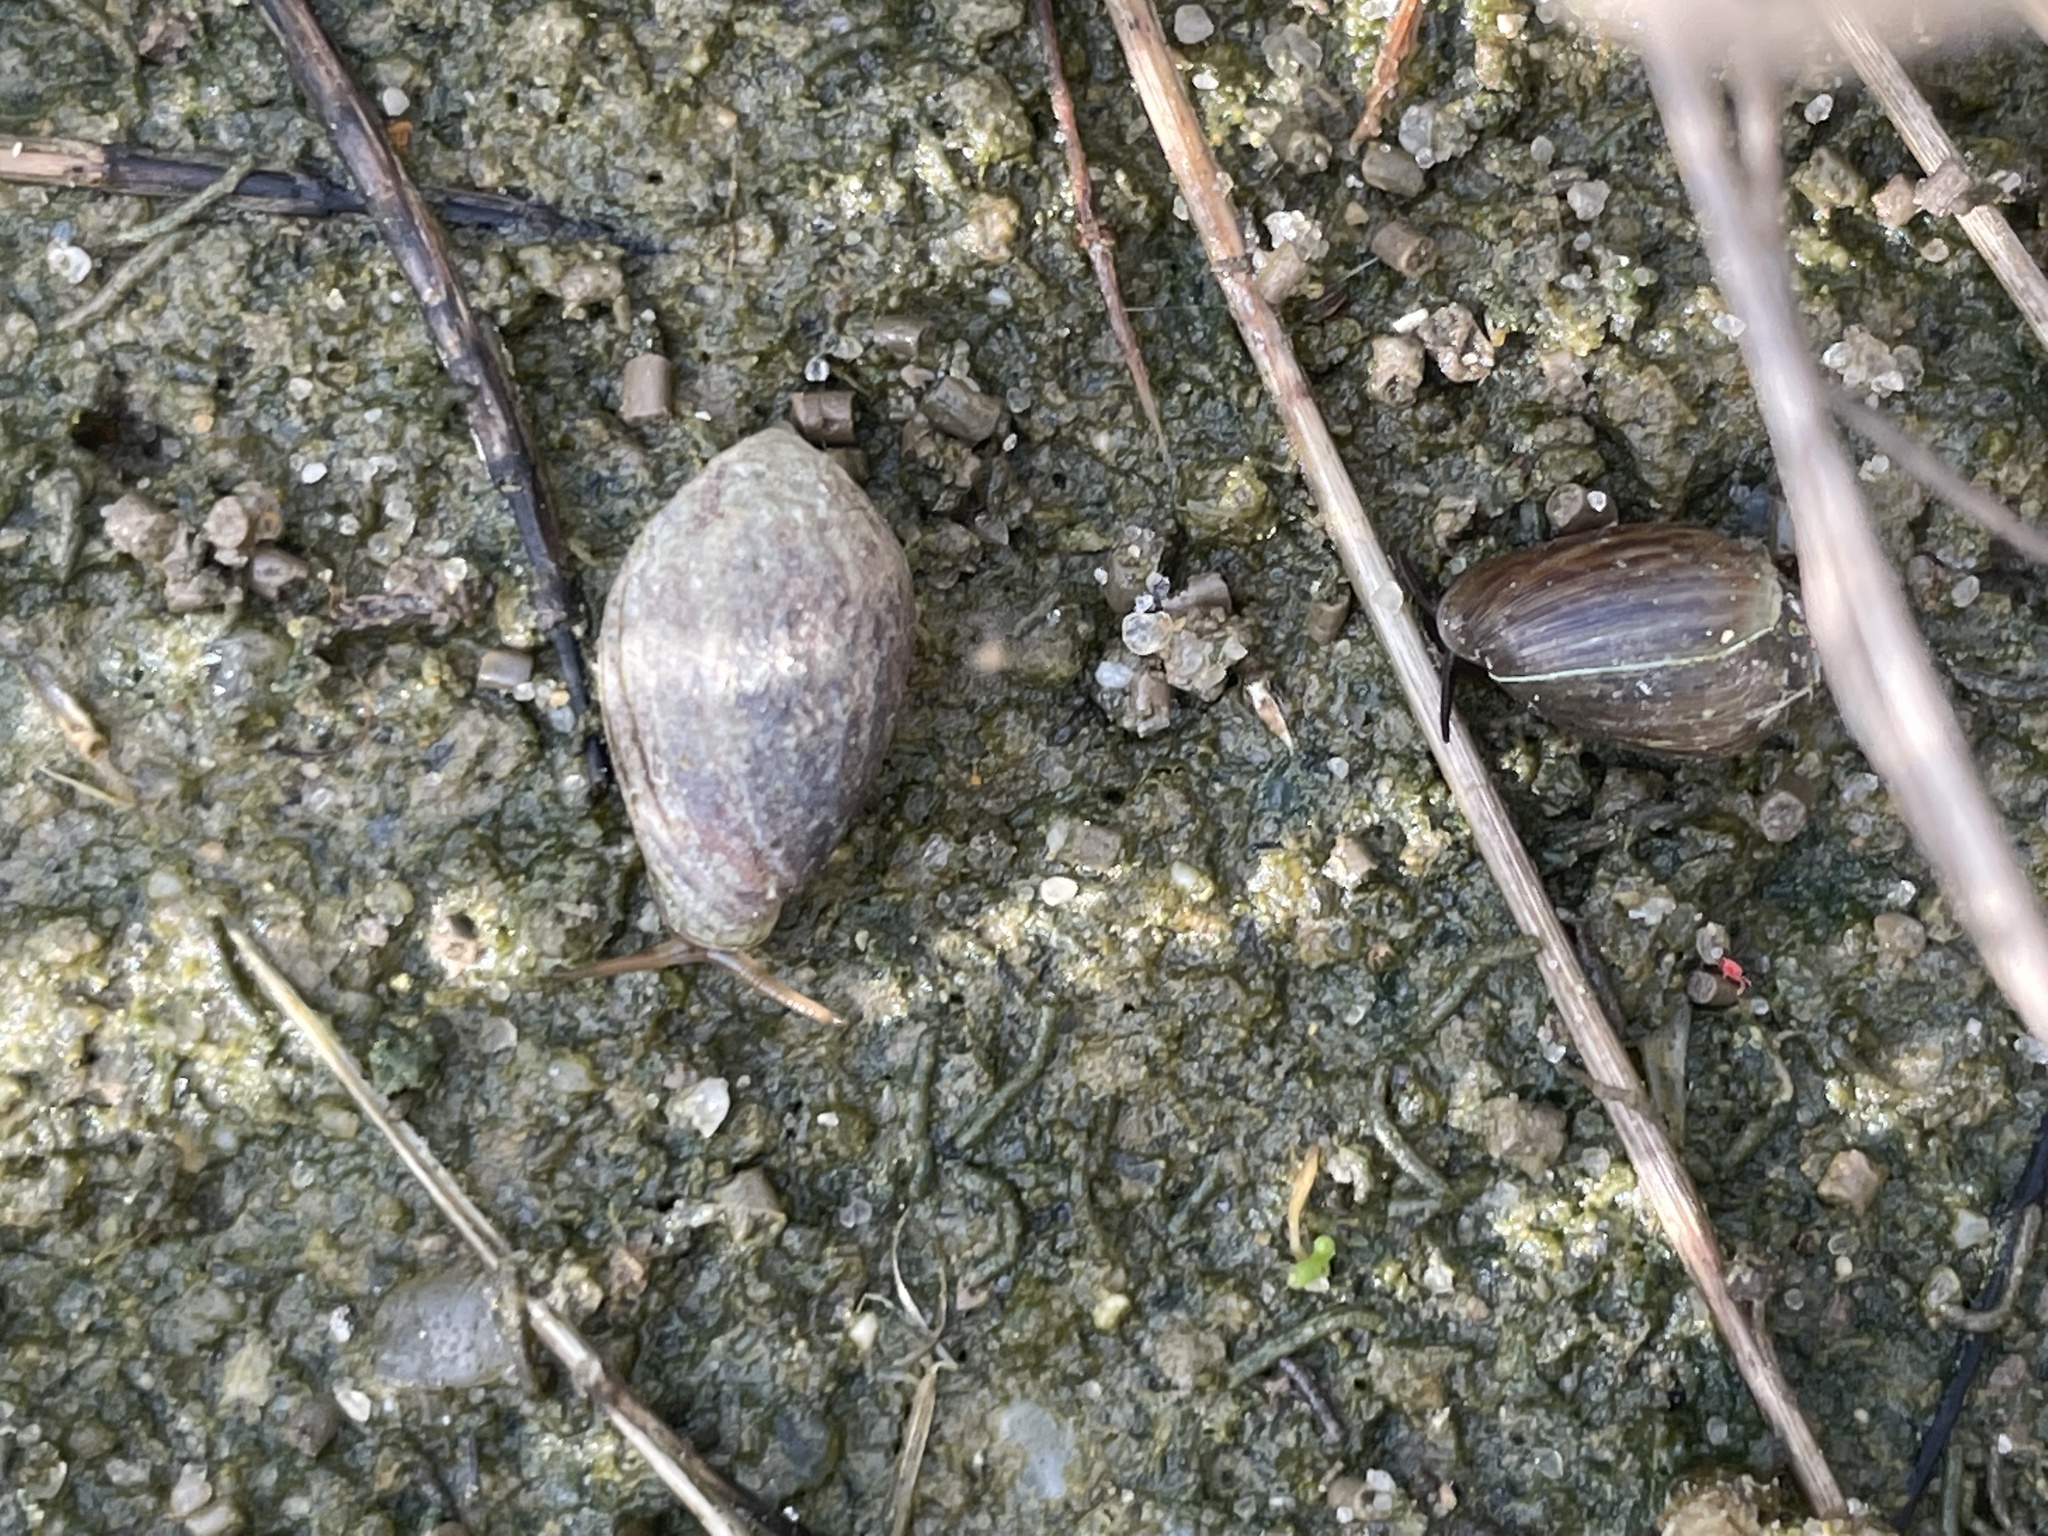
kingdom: Animalia
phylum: Mollusca
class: Gastropoda
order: Ellobiida
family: Ellobiidae
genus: Melampus
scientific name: Melampus bidentatus
